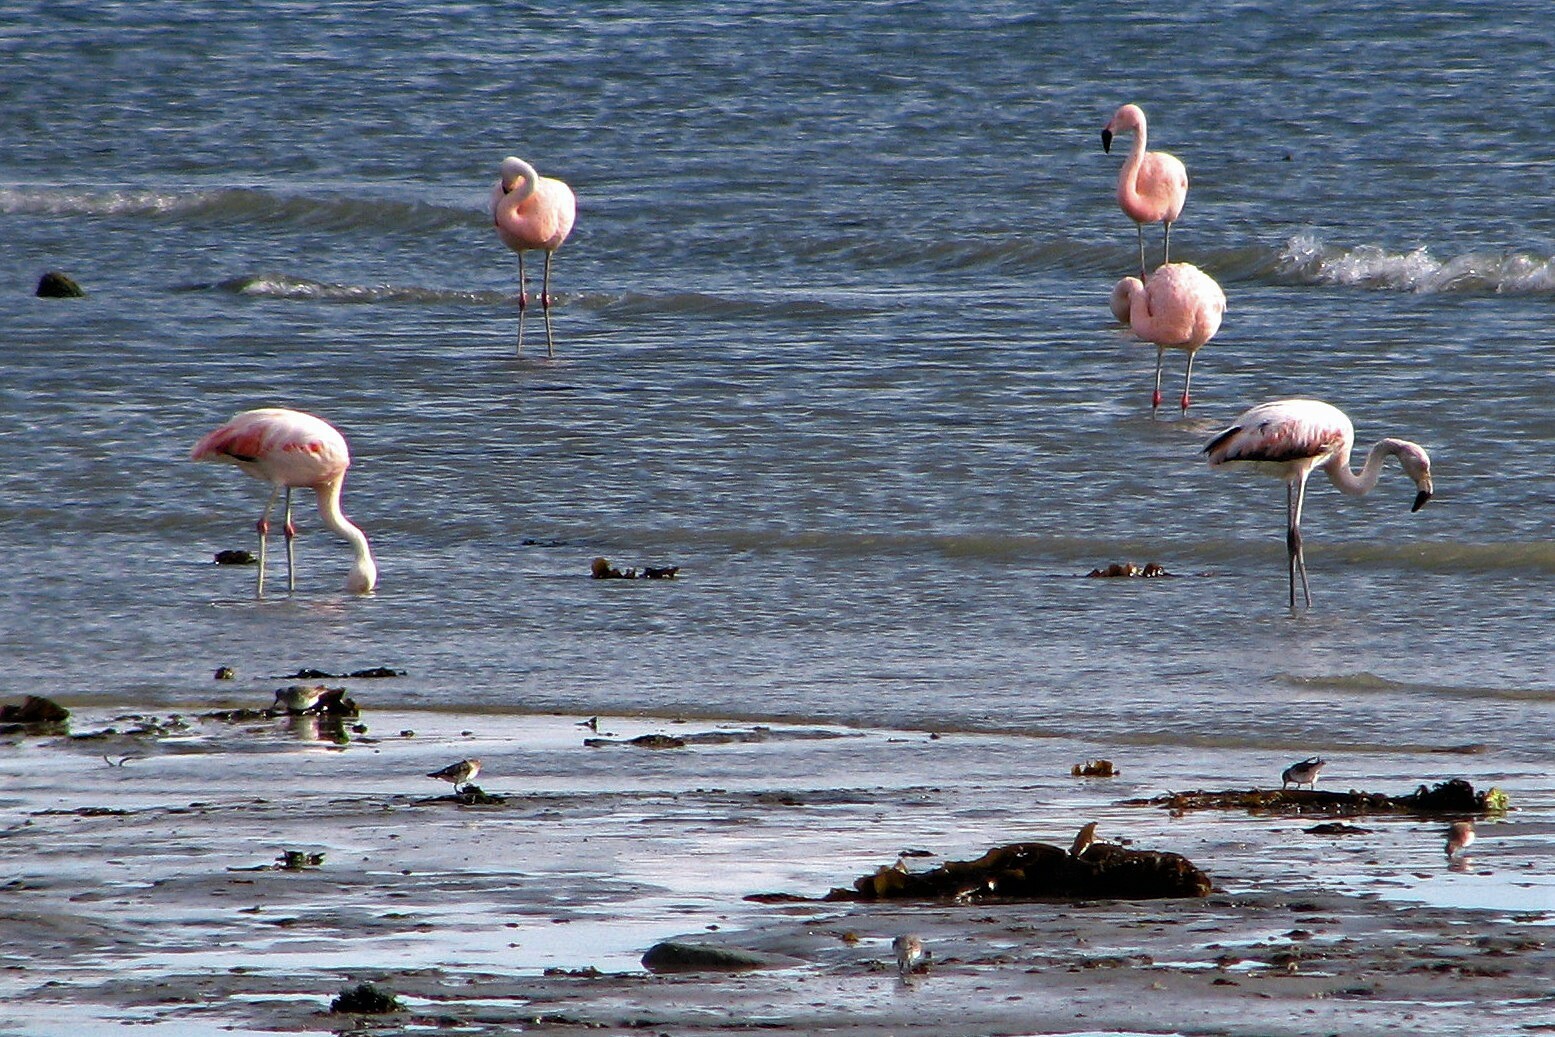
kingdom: Animalia
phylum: Chordata
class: Aves
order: Phoenicopteriformes
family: Phoenicopteridae
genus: Phoenicopterus
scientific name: Phoenicopterus chilensis
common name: Chilean flamingo
